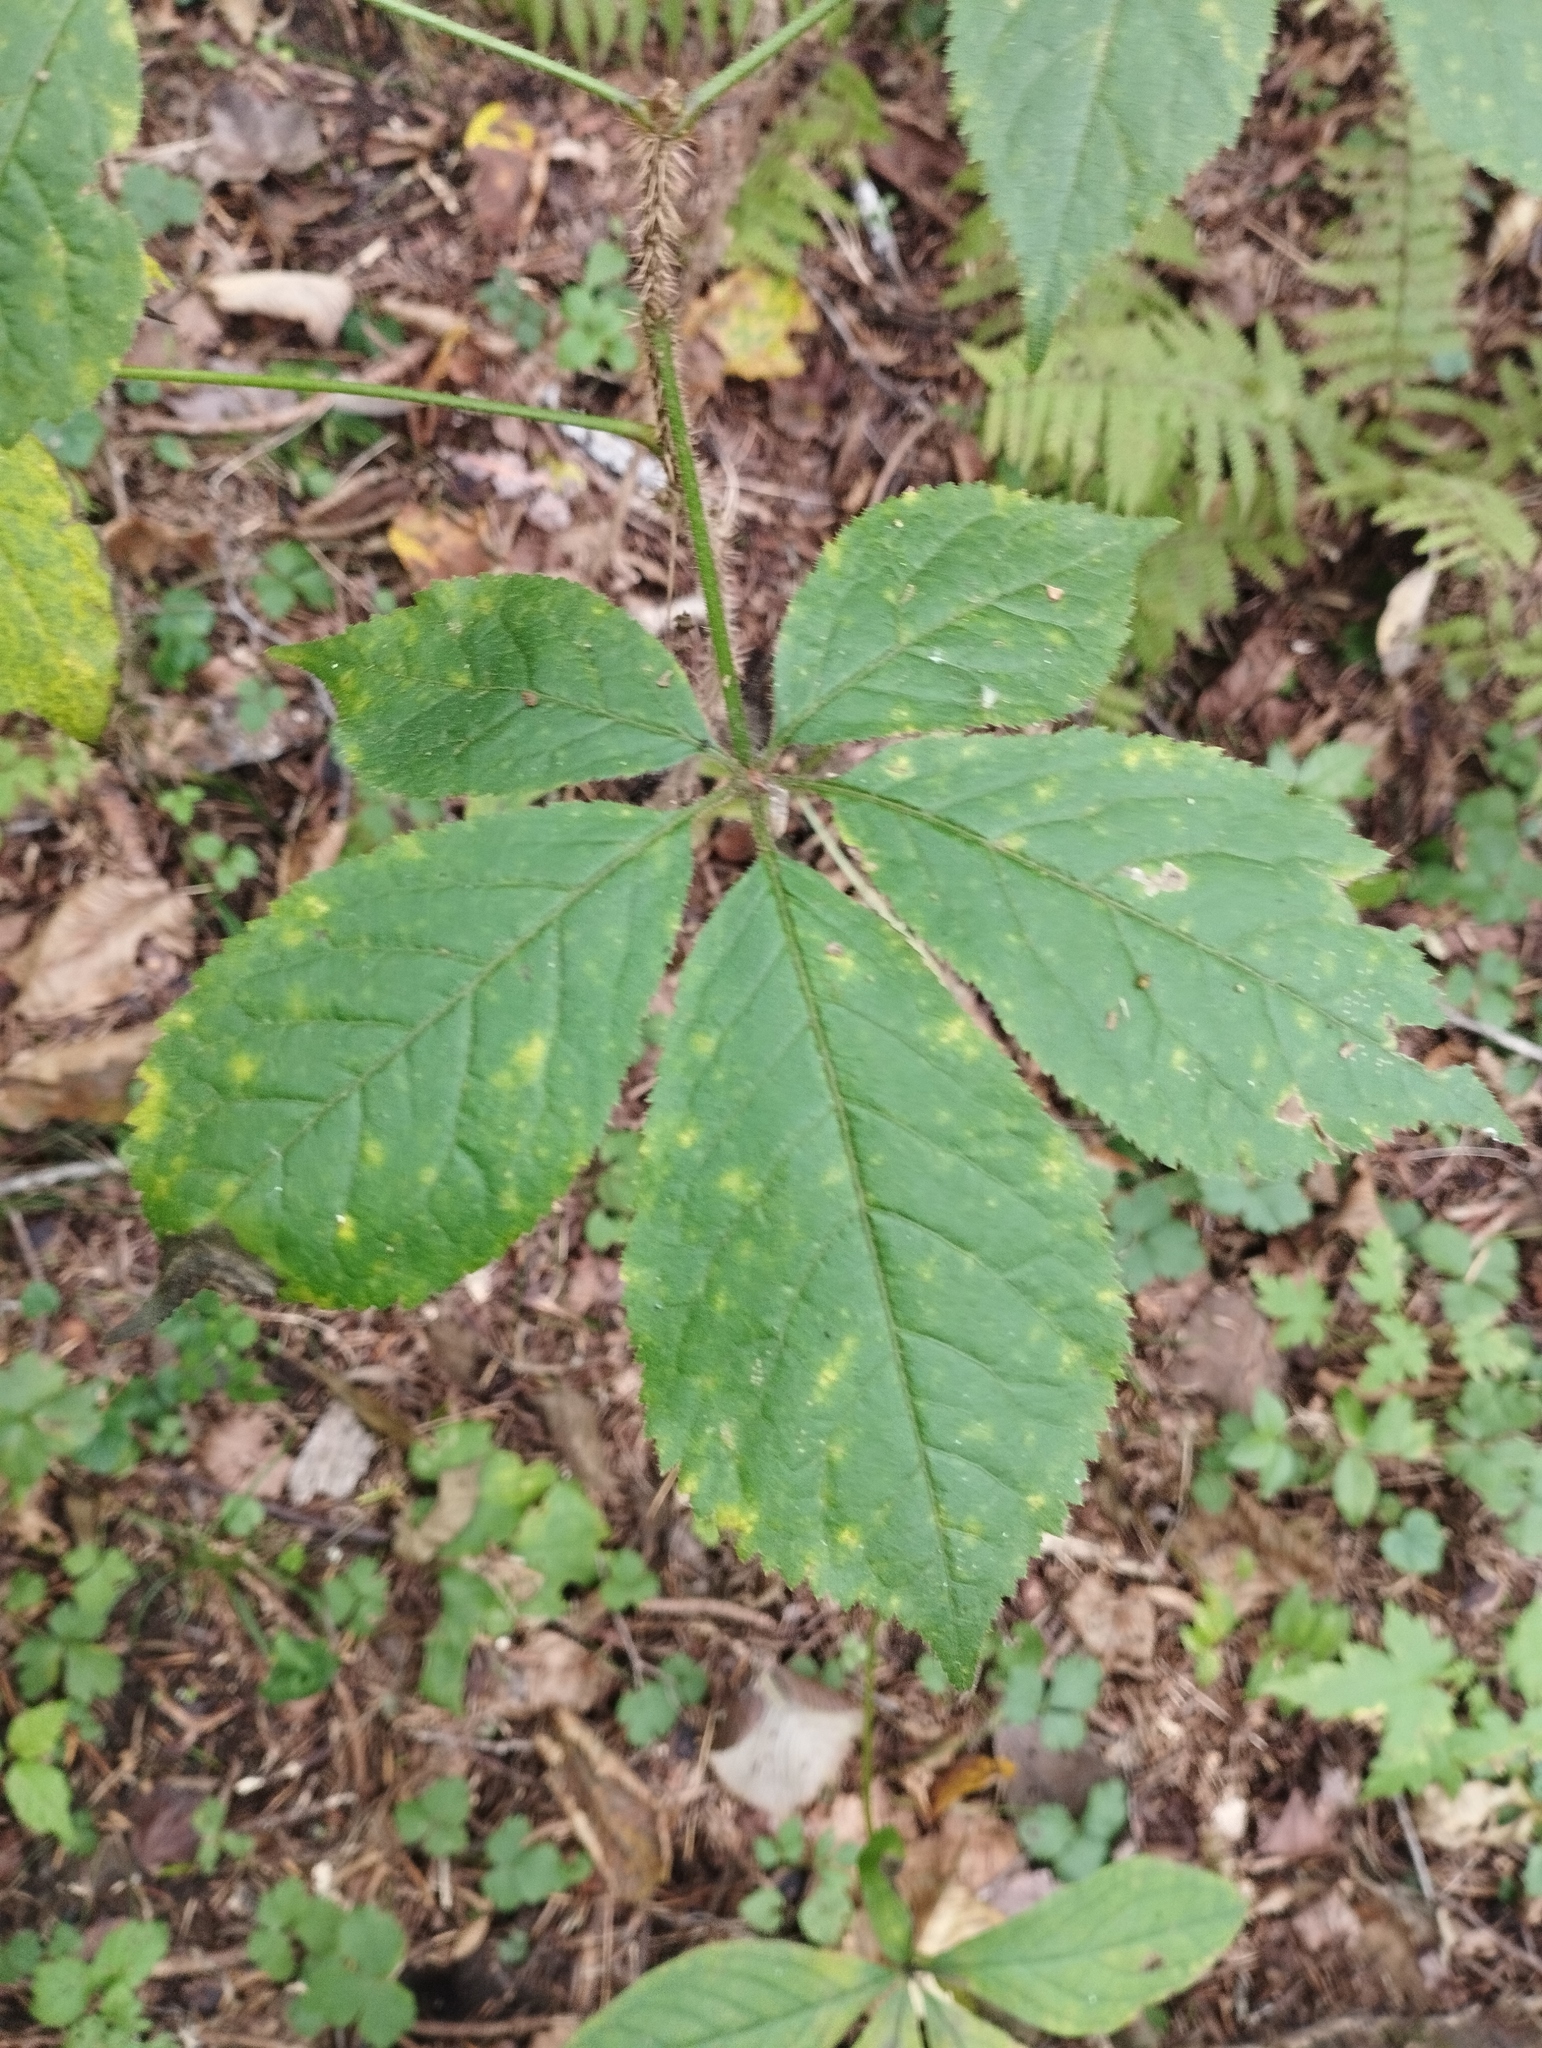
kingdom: Plantae
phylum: Tracheophyta
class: Magnoliopsida
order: Apiales
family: Araliaceae
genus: Eleutherococcus
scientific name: Eleutherococcus senticosus
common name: Siberian-ginseng
